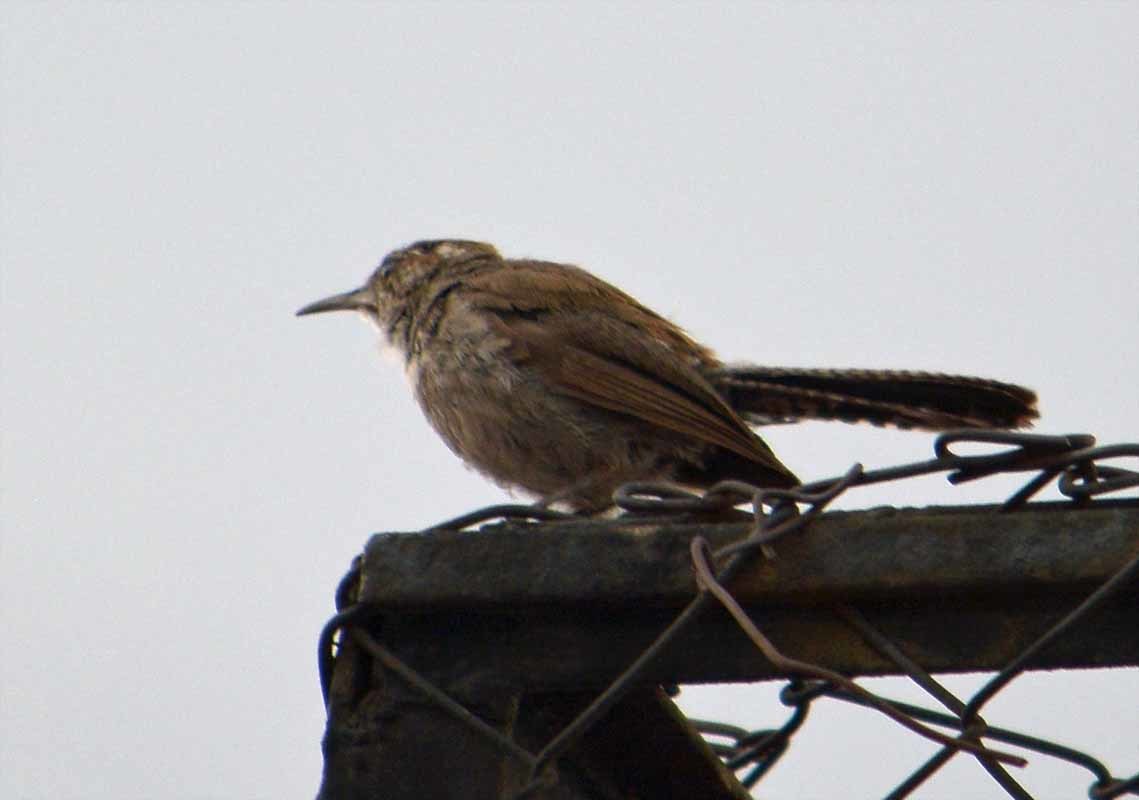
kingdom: Animalia
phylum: Chordata
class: Aves
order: Passeriformes
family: Troglodytidae
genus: Thryomanes
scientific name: Thryomanes bewickii
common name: Bewick's wren
